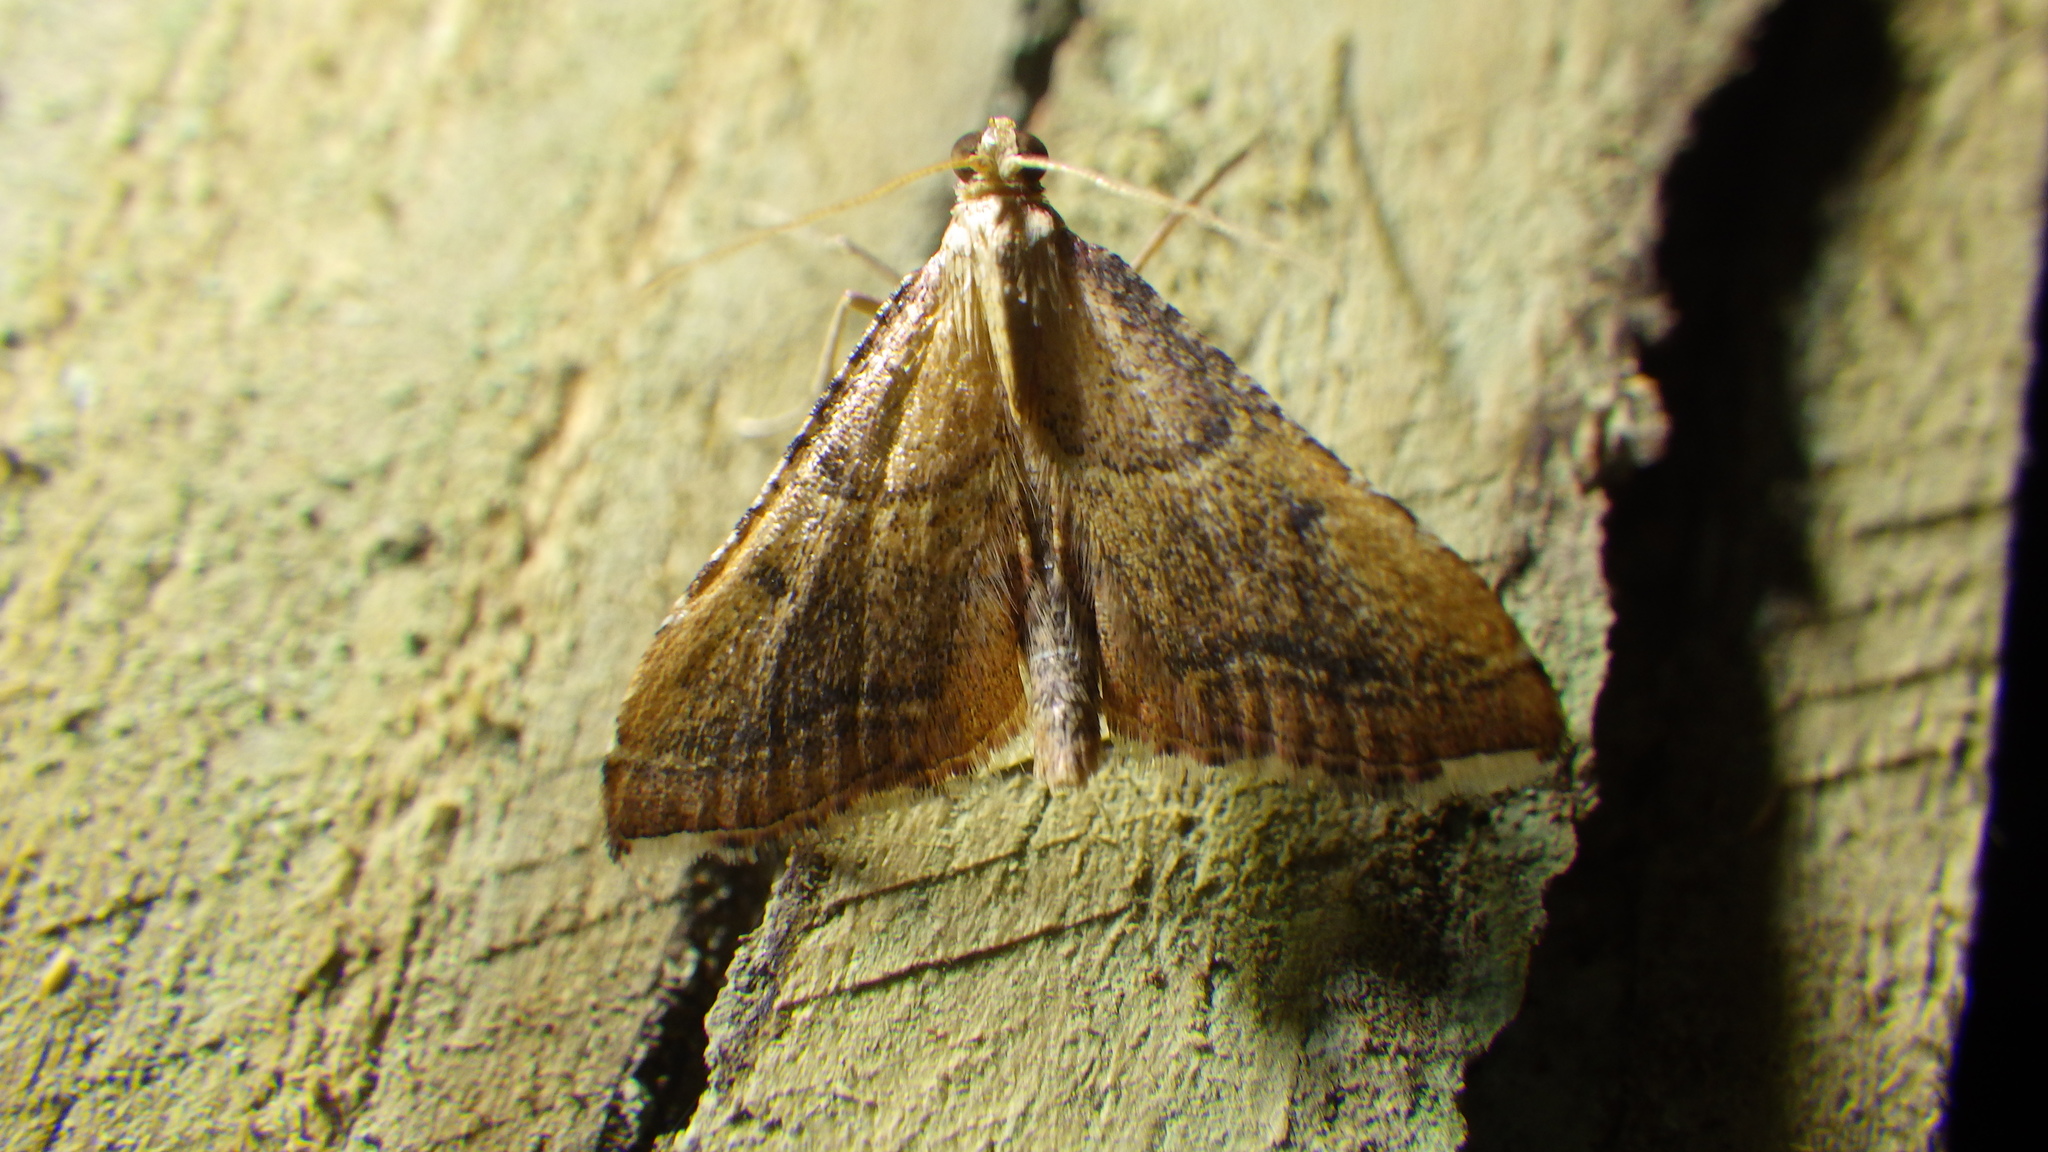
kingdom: Animalia
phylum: Arthropoda
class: Insecta
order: Lepidoptera
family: Pyralidae
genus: Endotricha
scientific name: Endotricha flammealis
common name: Rosy tabby
